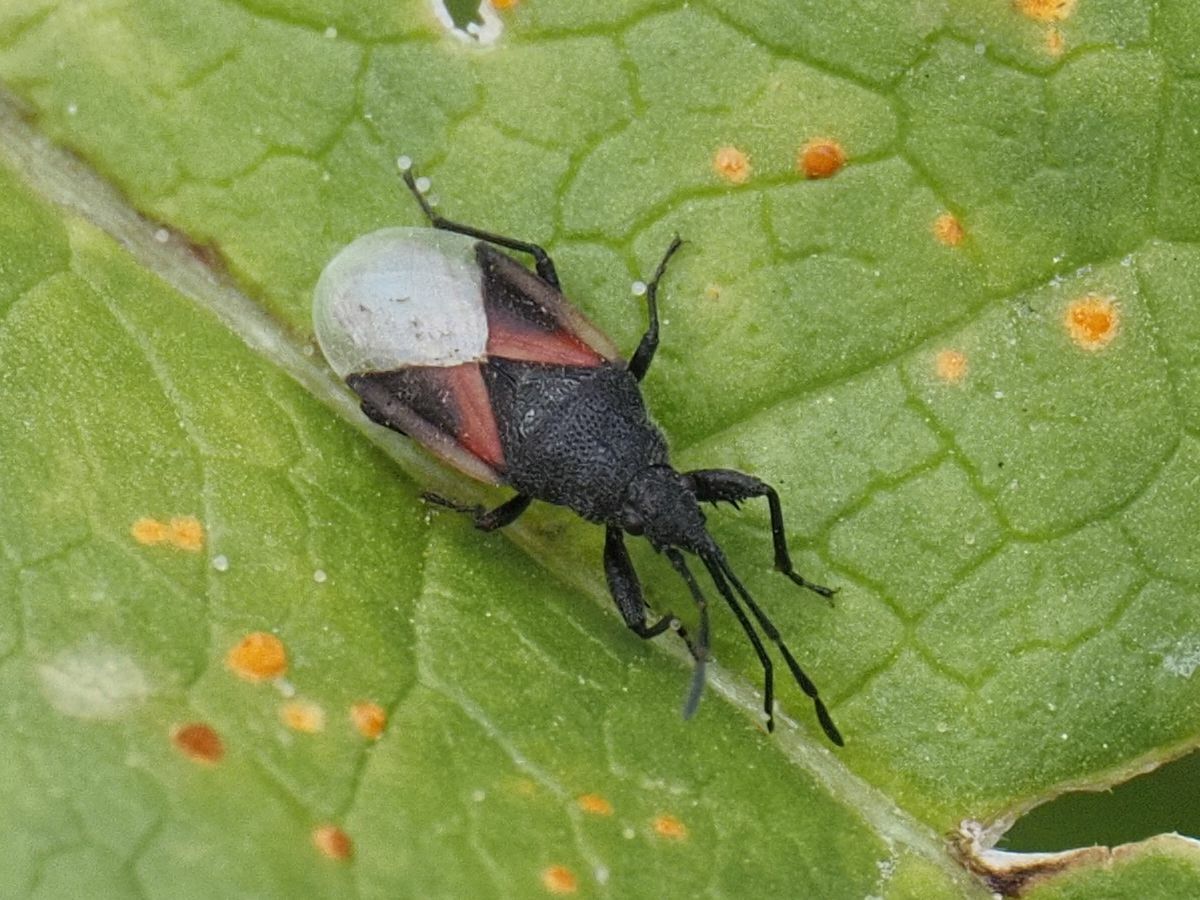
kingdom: Animalia
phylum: Arthropoda
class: Insecta
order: Hemiptera
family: Oxycarenidae
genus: Oxycarenus
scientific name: Oxycarenus lavaterae
